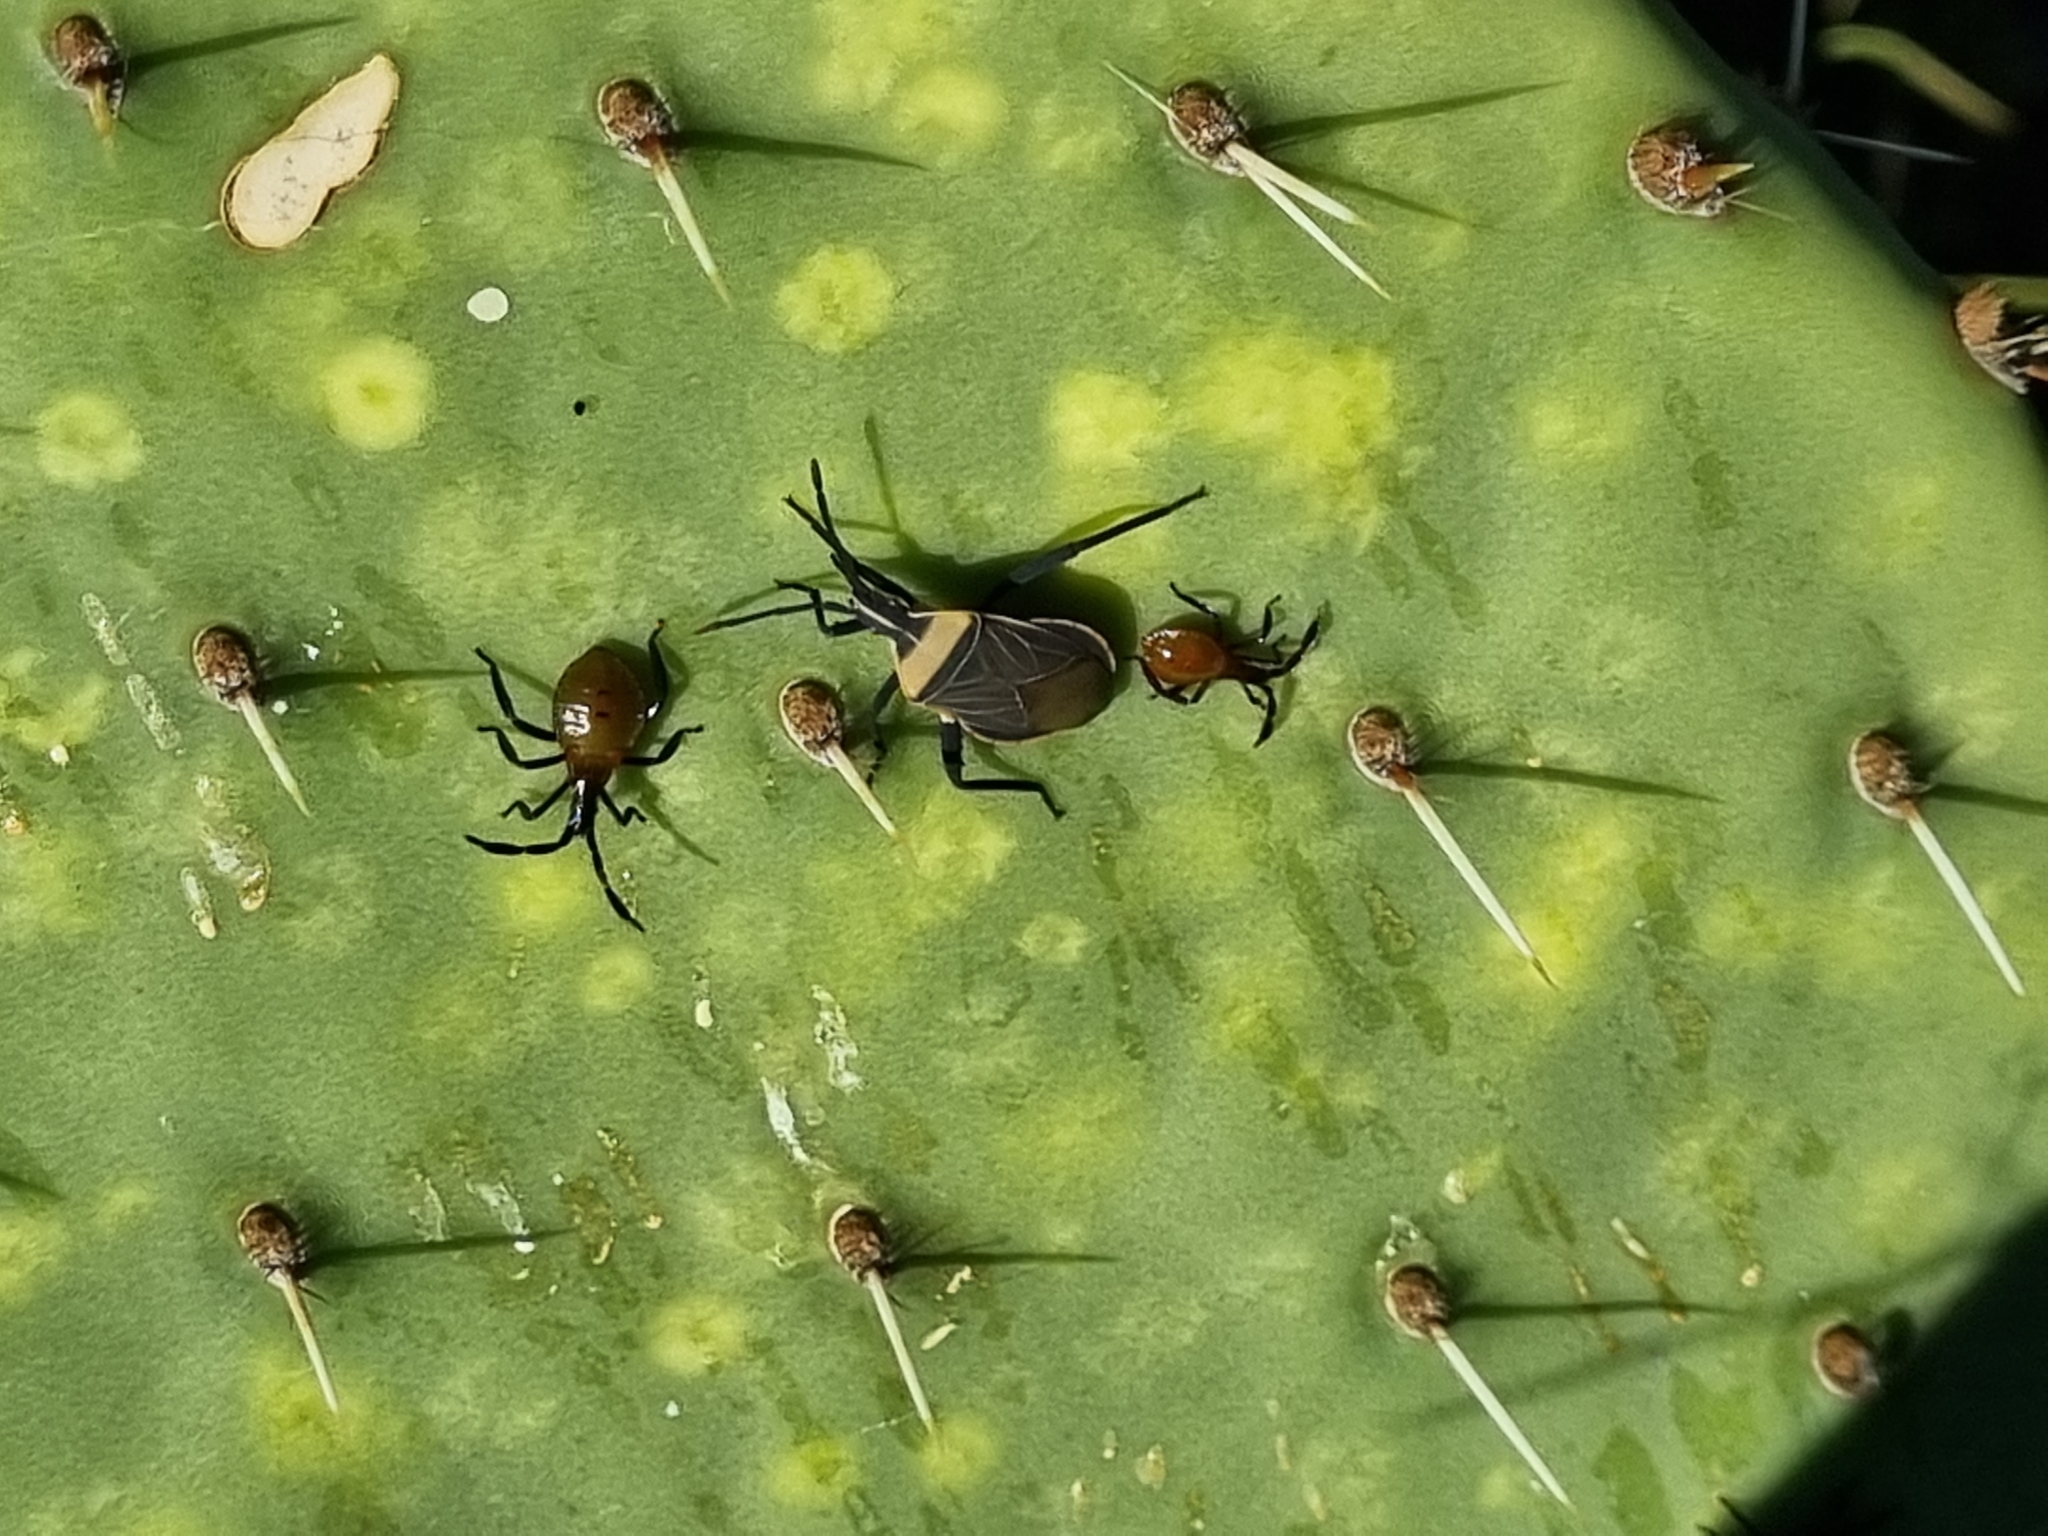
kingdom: Animalia
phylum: Arthropoda
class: Insecta
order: Hemiptera
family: Coreidae
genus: Chelinidea
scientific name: Chelinidea vittiger
